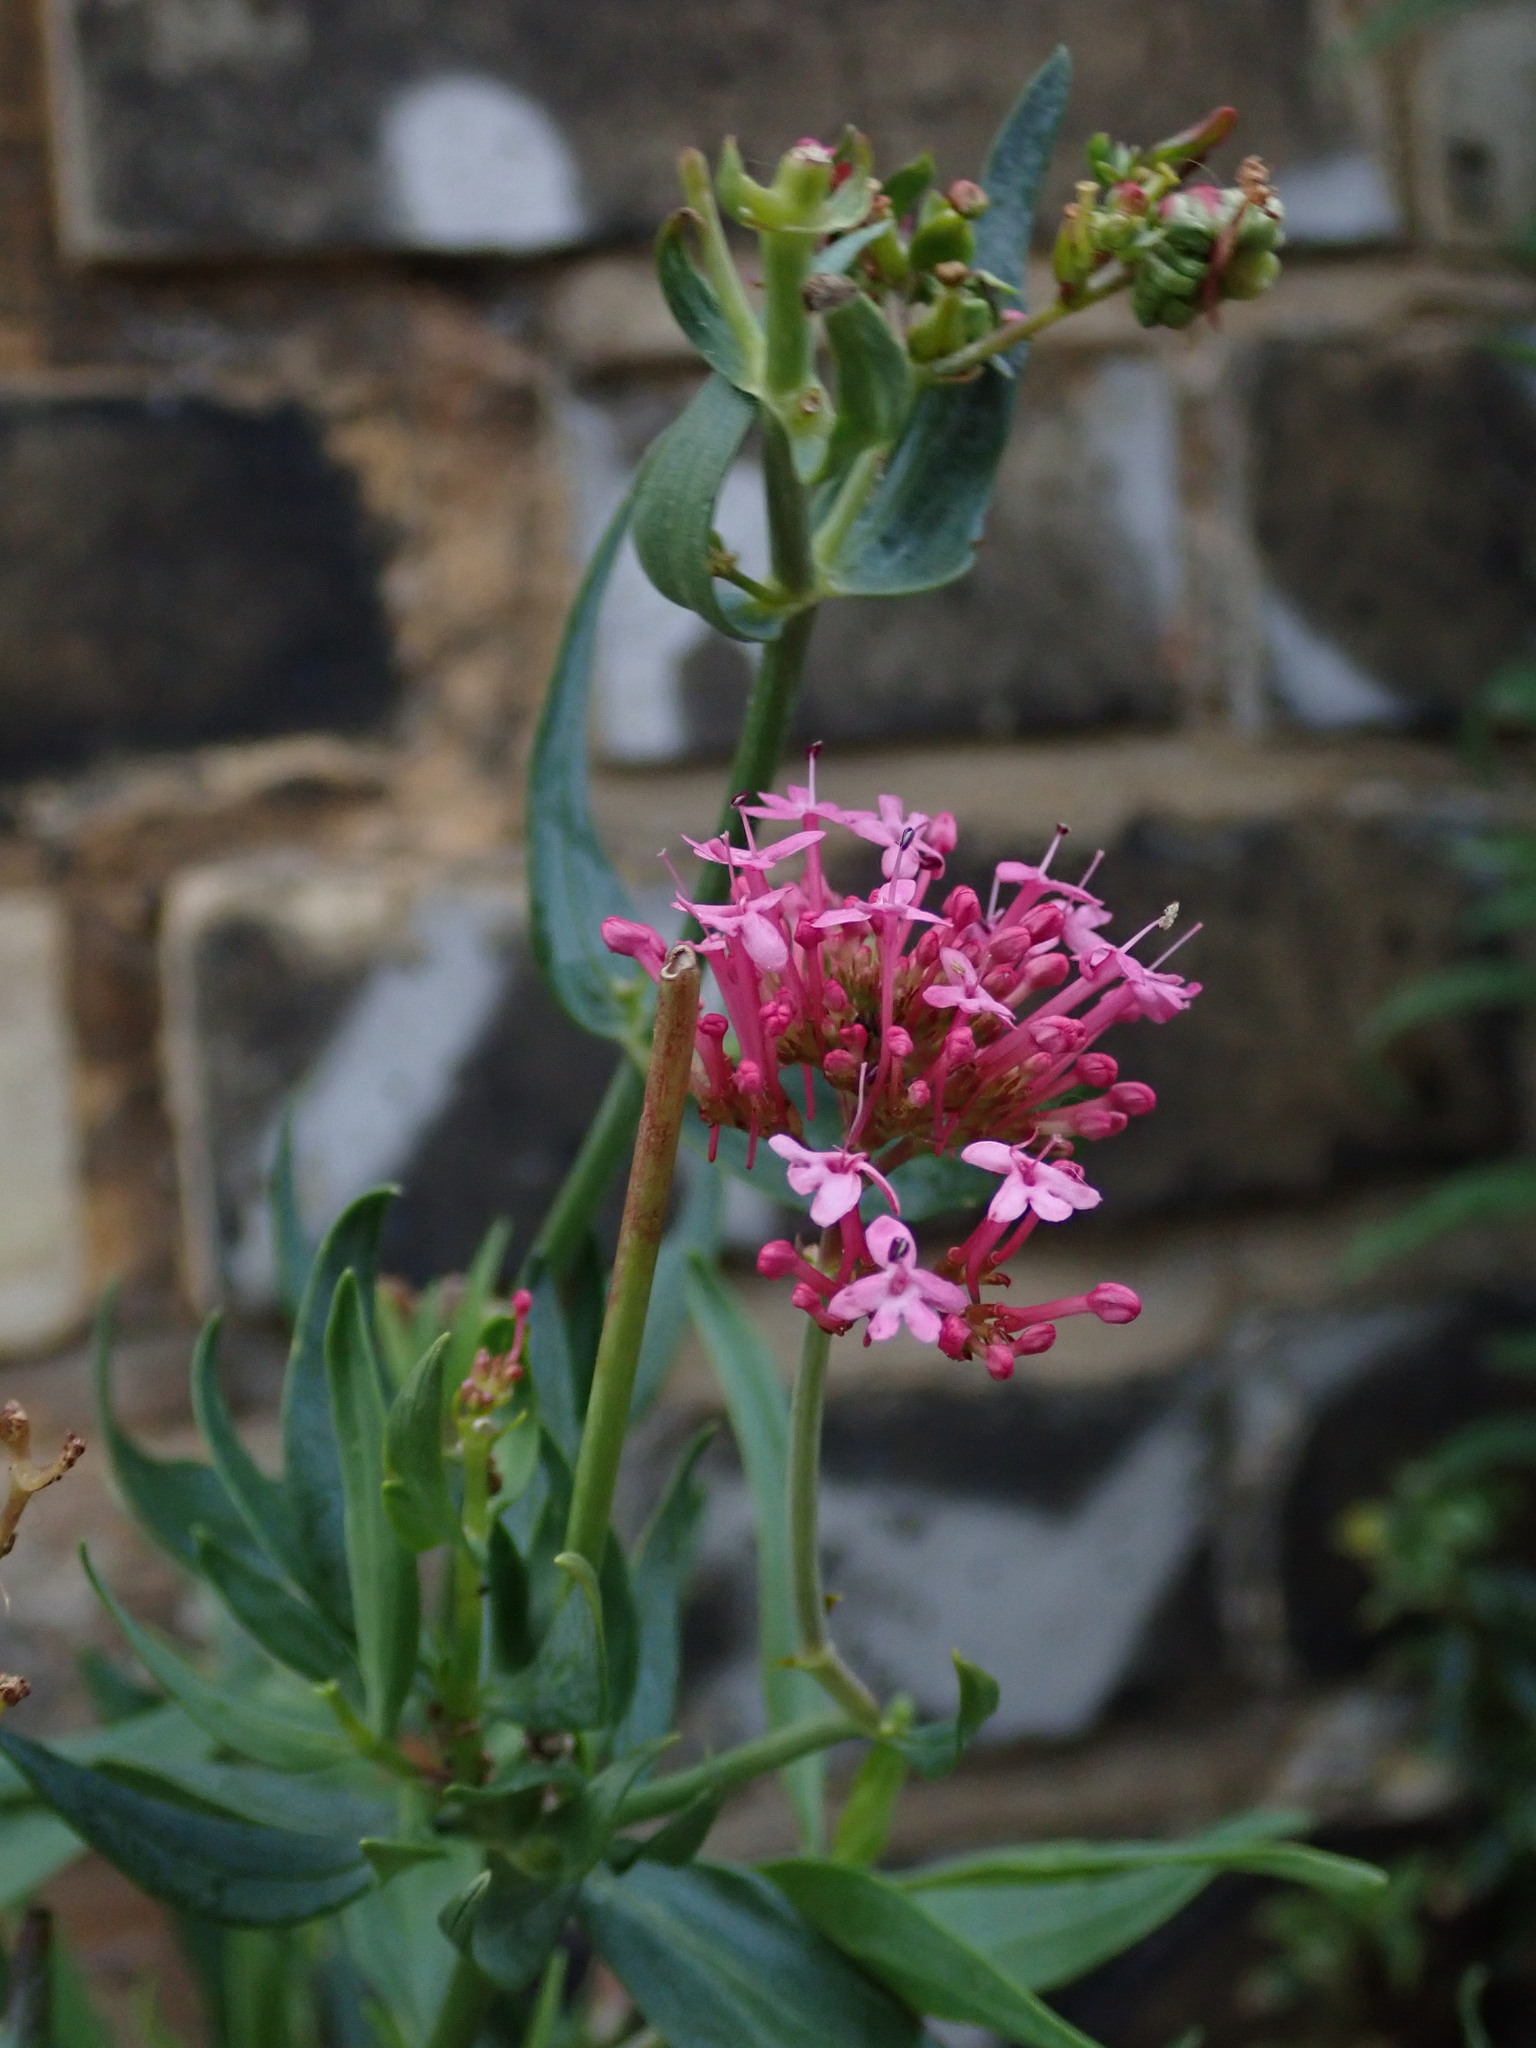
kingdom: Plantae
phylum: Tracheophyta
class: Magnoliopsida
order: Dipsacales
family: Caprifoliaceae
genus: Centranthus
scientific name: Centranthus ruber
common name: Red valerian
